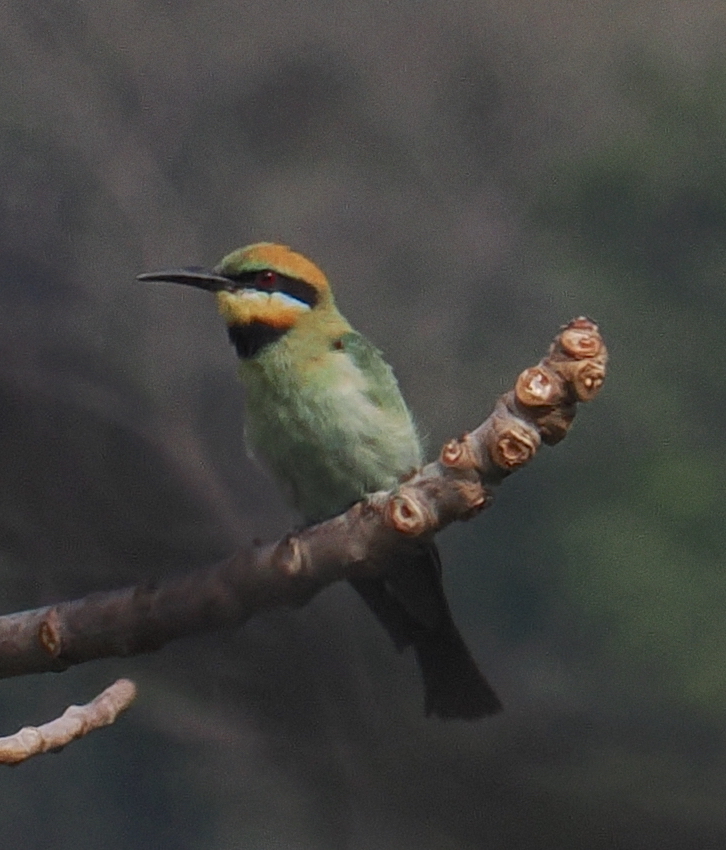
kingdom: Animalia
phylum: Chordata
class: Aves
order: Coraciiformes
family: Meropidae
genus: Merops
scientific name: Merops ornatus
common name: Rainbow bee-eater
